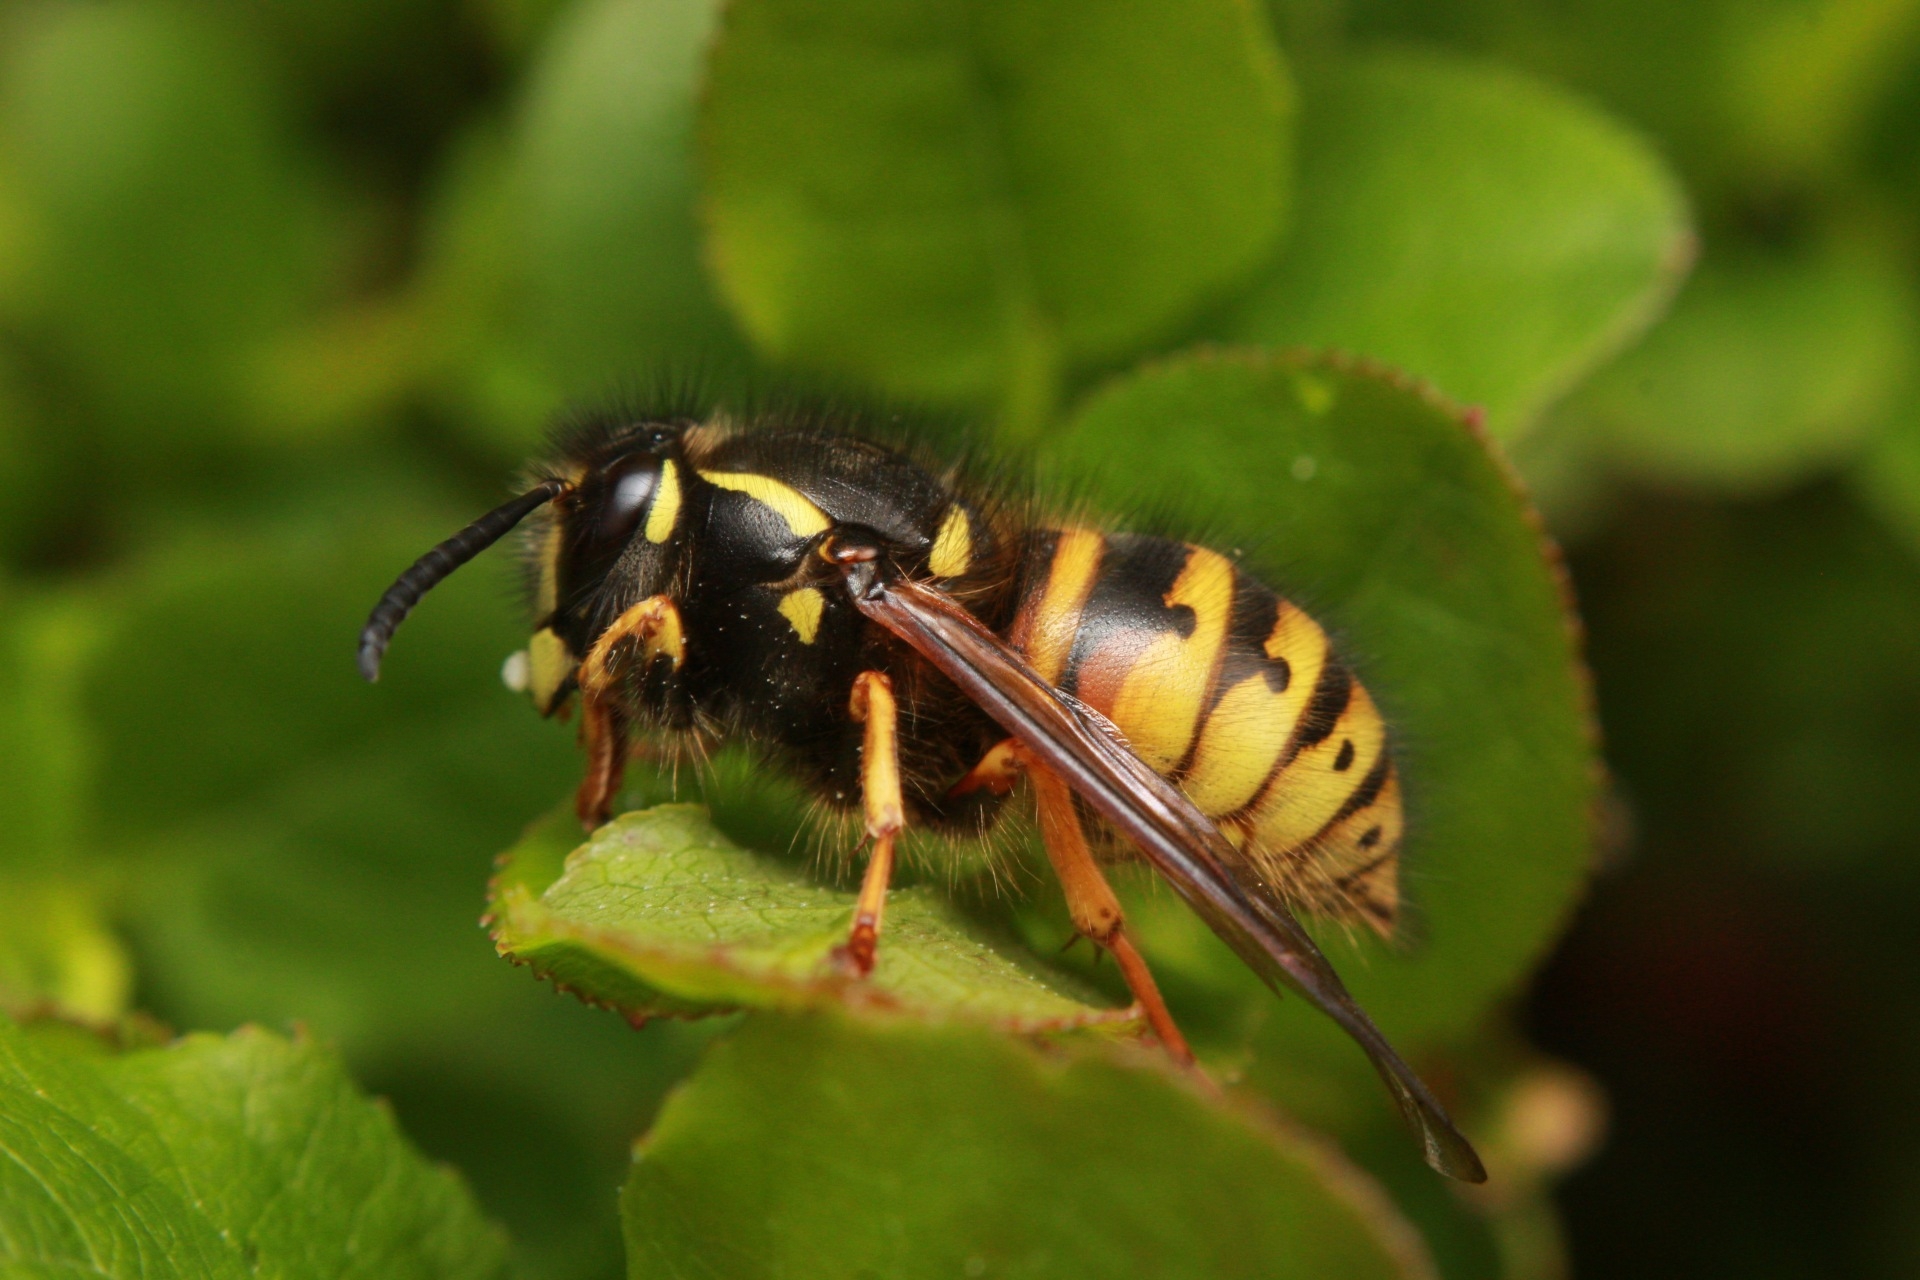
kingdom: Animalia
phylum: Arthropoda
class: Insecta
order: Hymenoptera
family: Vespidae
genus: Dolichovespula
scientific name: Dolichovespula norwegica
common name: Norwegian wasp
